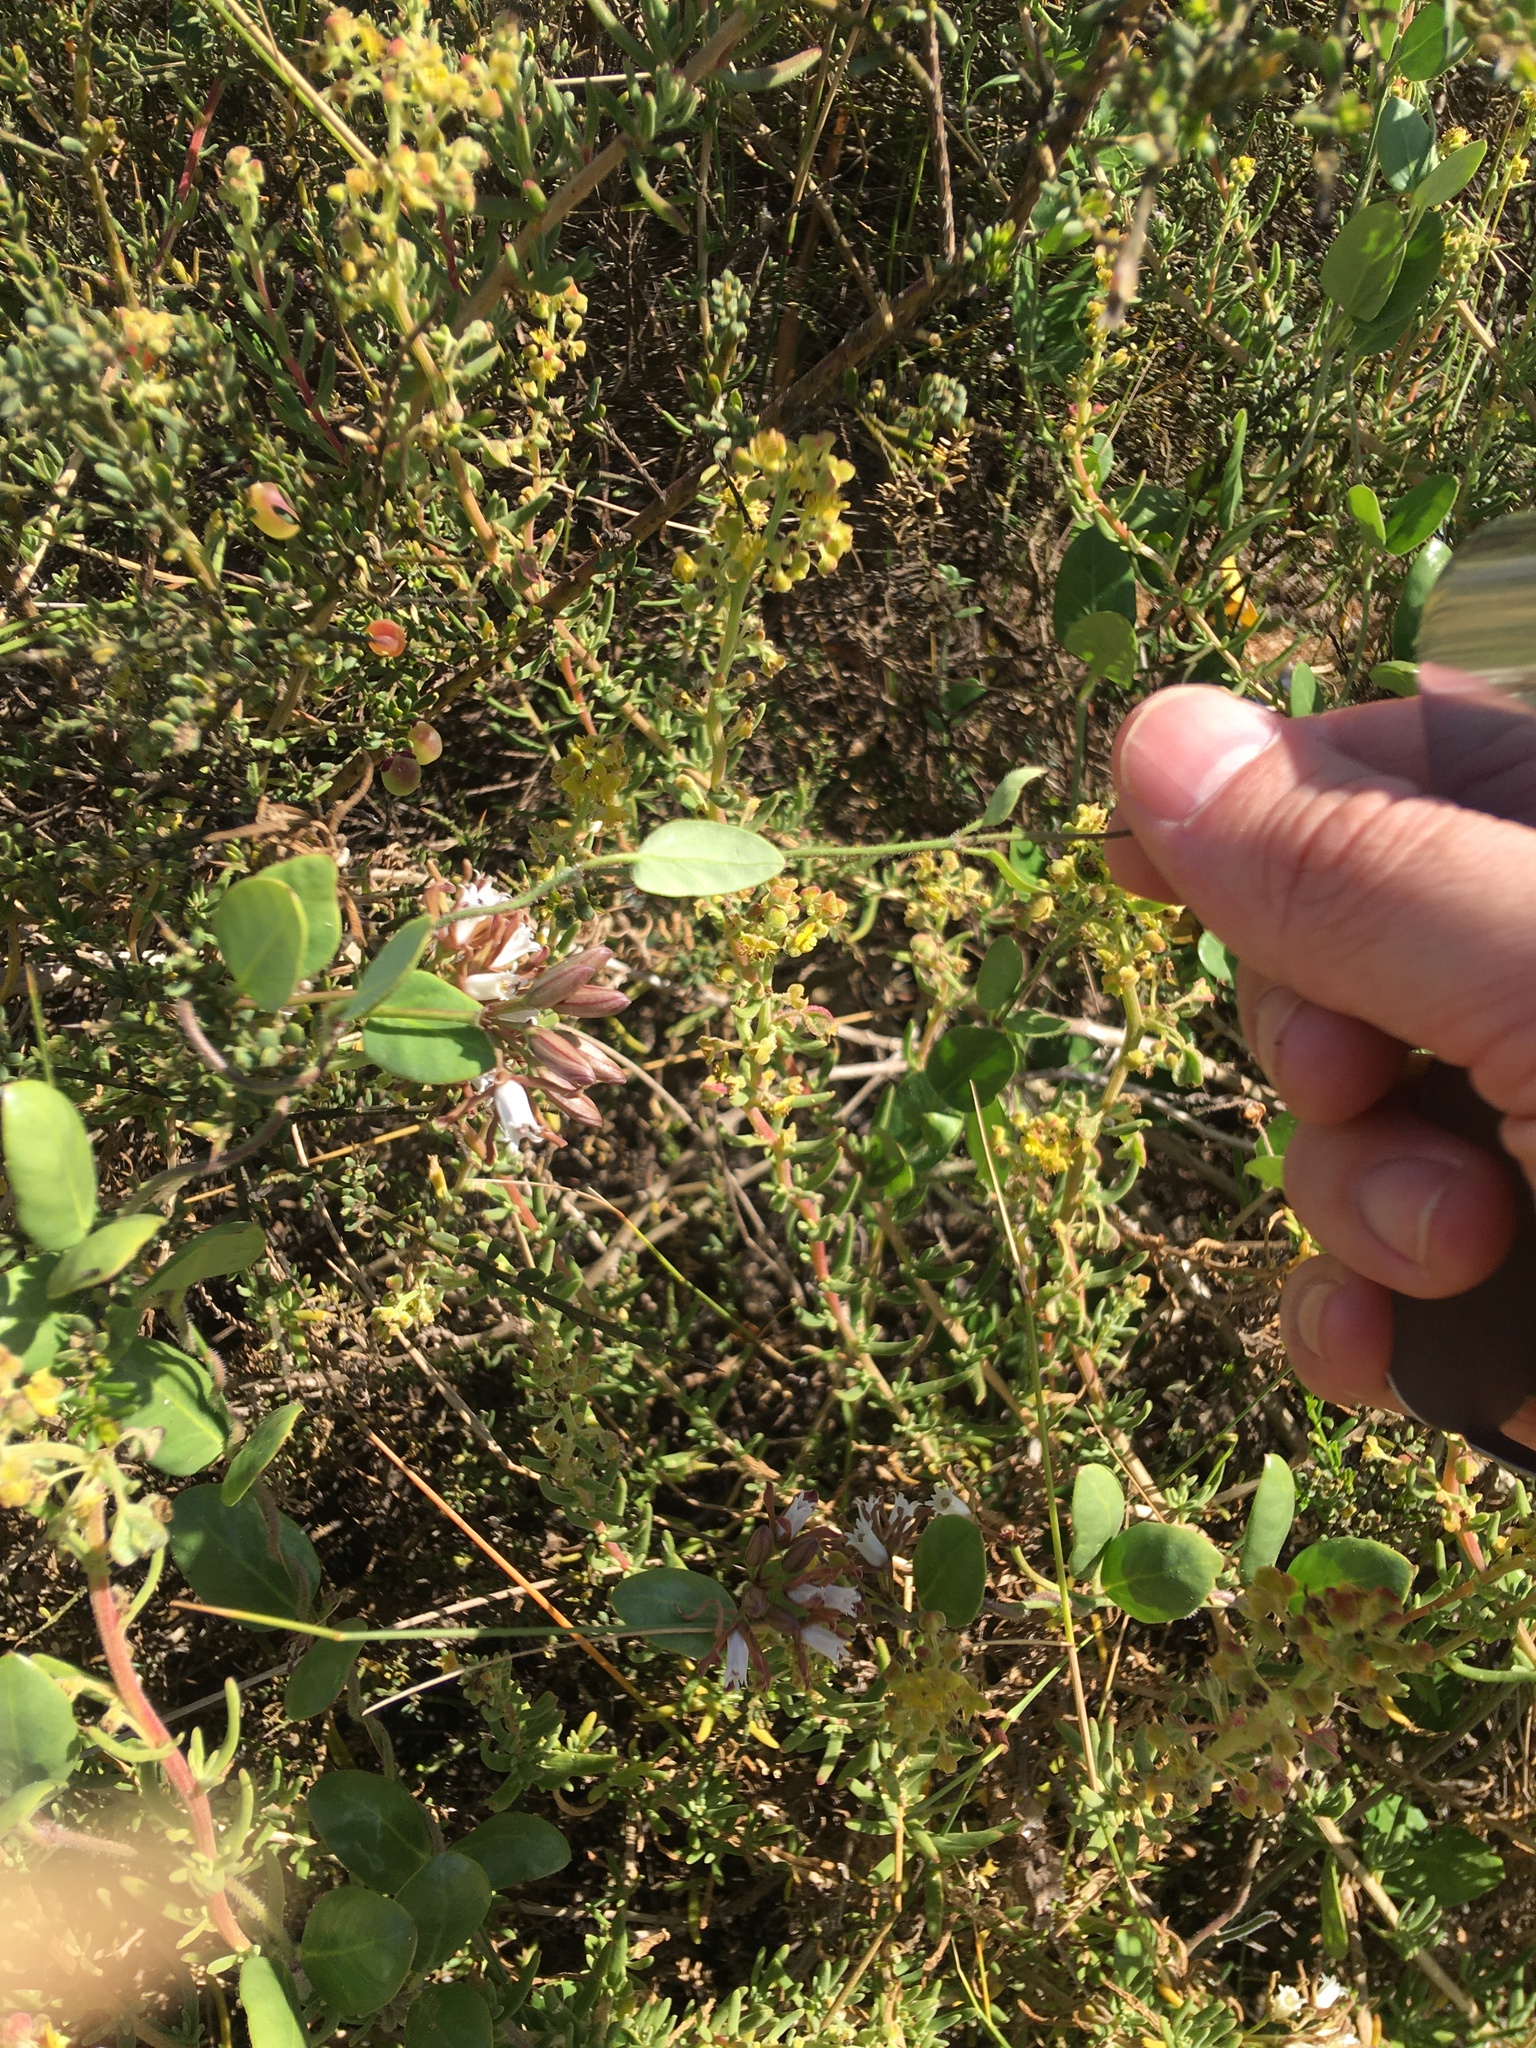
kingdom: Plantae
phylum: Tracheophyta
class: Magnoliopsida
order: Gentianales
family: Apocynaceae
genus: Cynanchum
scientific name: Cynanchum africanum
